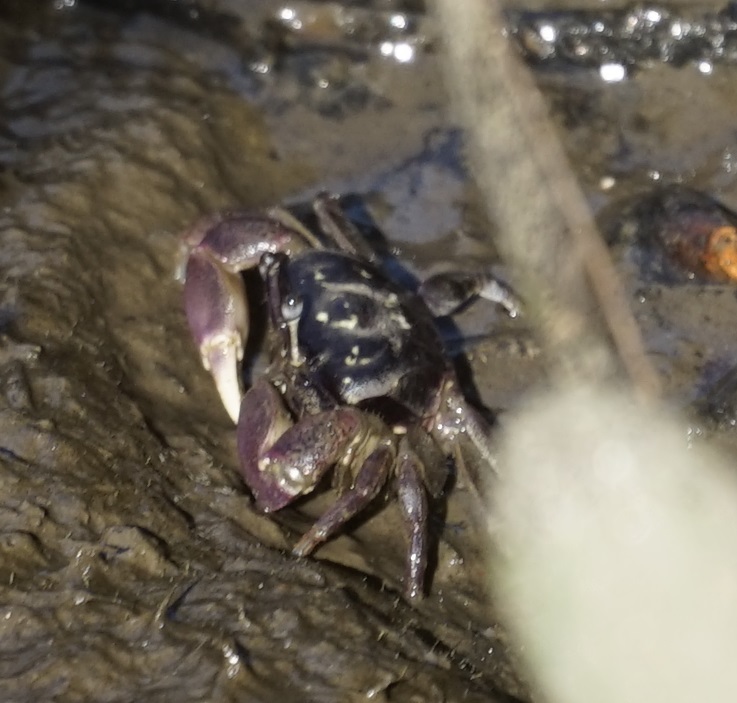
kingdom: Animalia
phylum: Arthropoda
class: Malacostraca
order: Decapoda
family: Heloeciidae
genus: Heloecius
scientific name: Heloecius cordiformis
